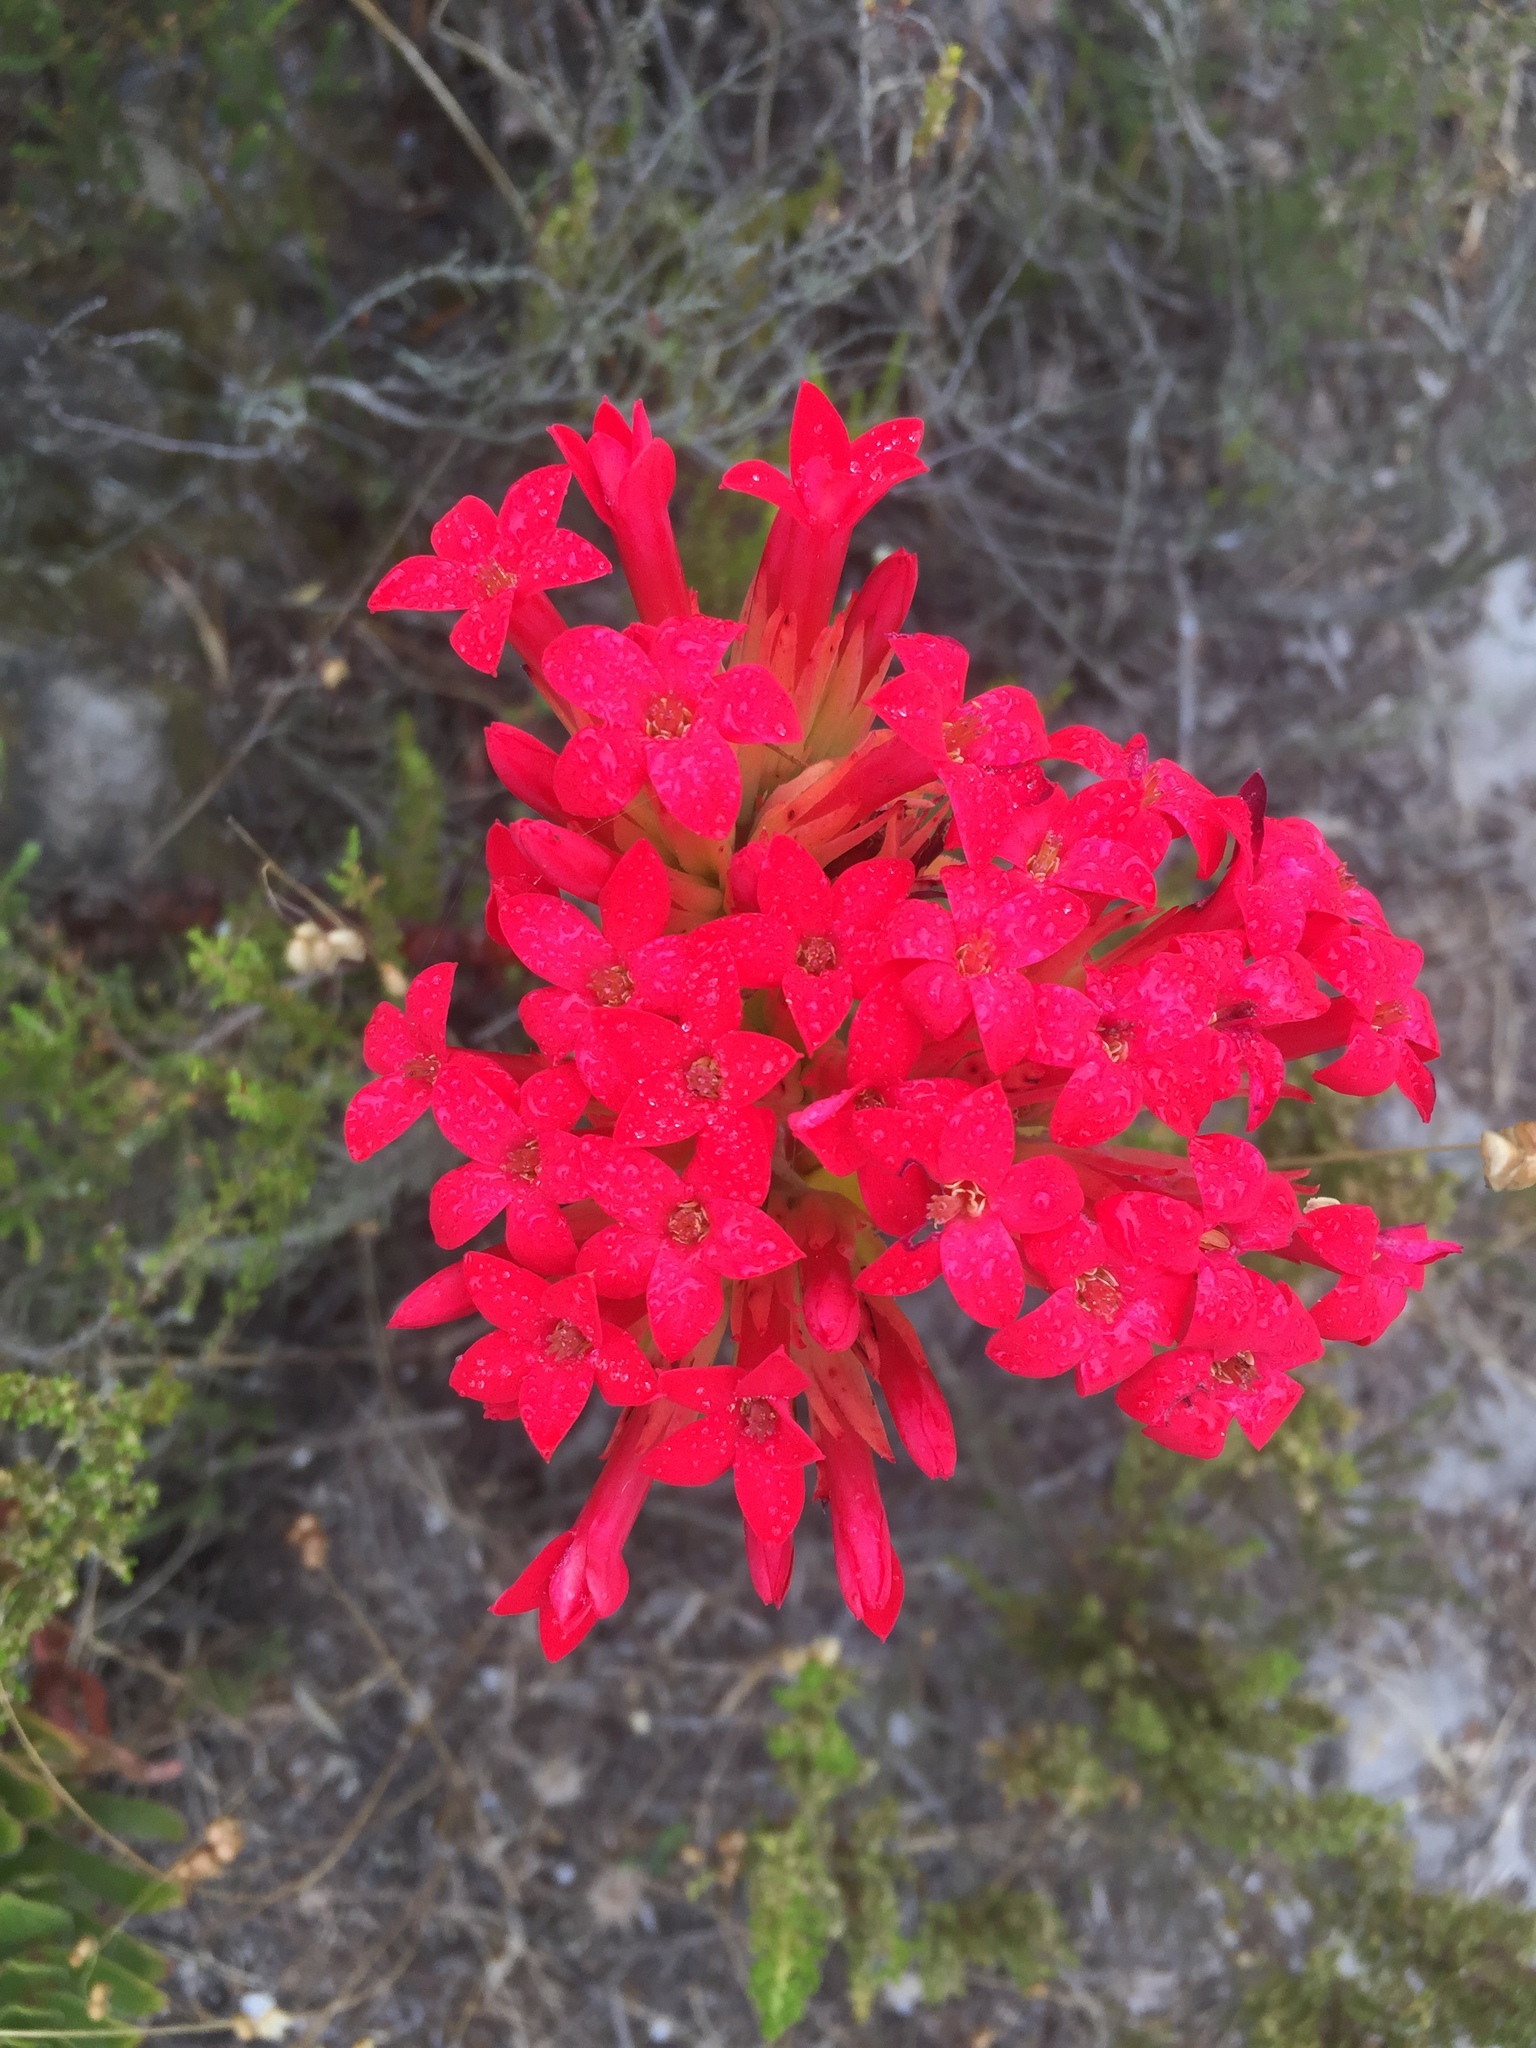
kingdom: Plantae
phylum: Tracheophyta
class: Magnoliopsida
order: Saxifragales
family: Crassulaceae
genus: Crassula
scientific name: Crassula coccinea
